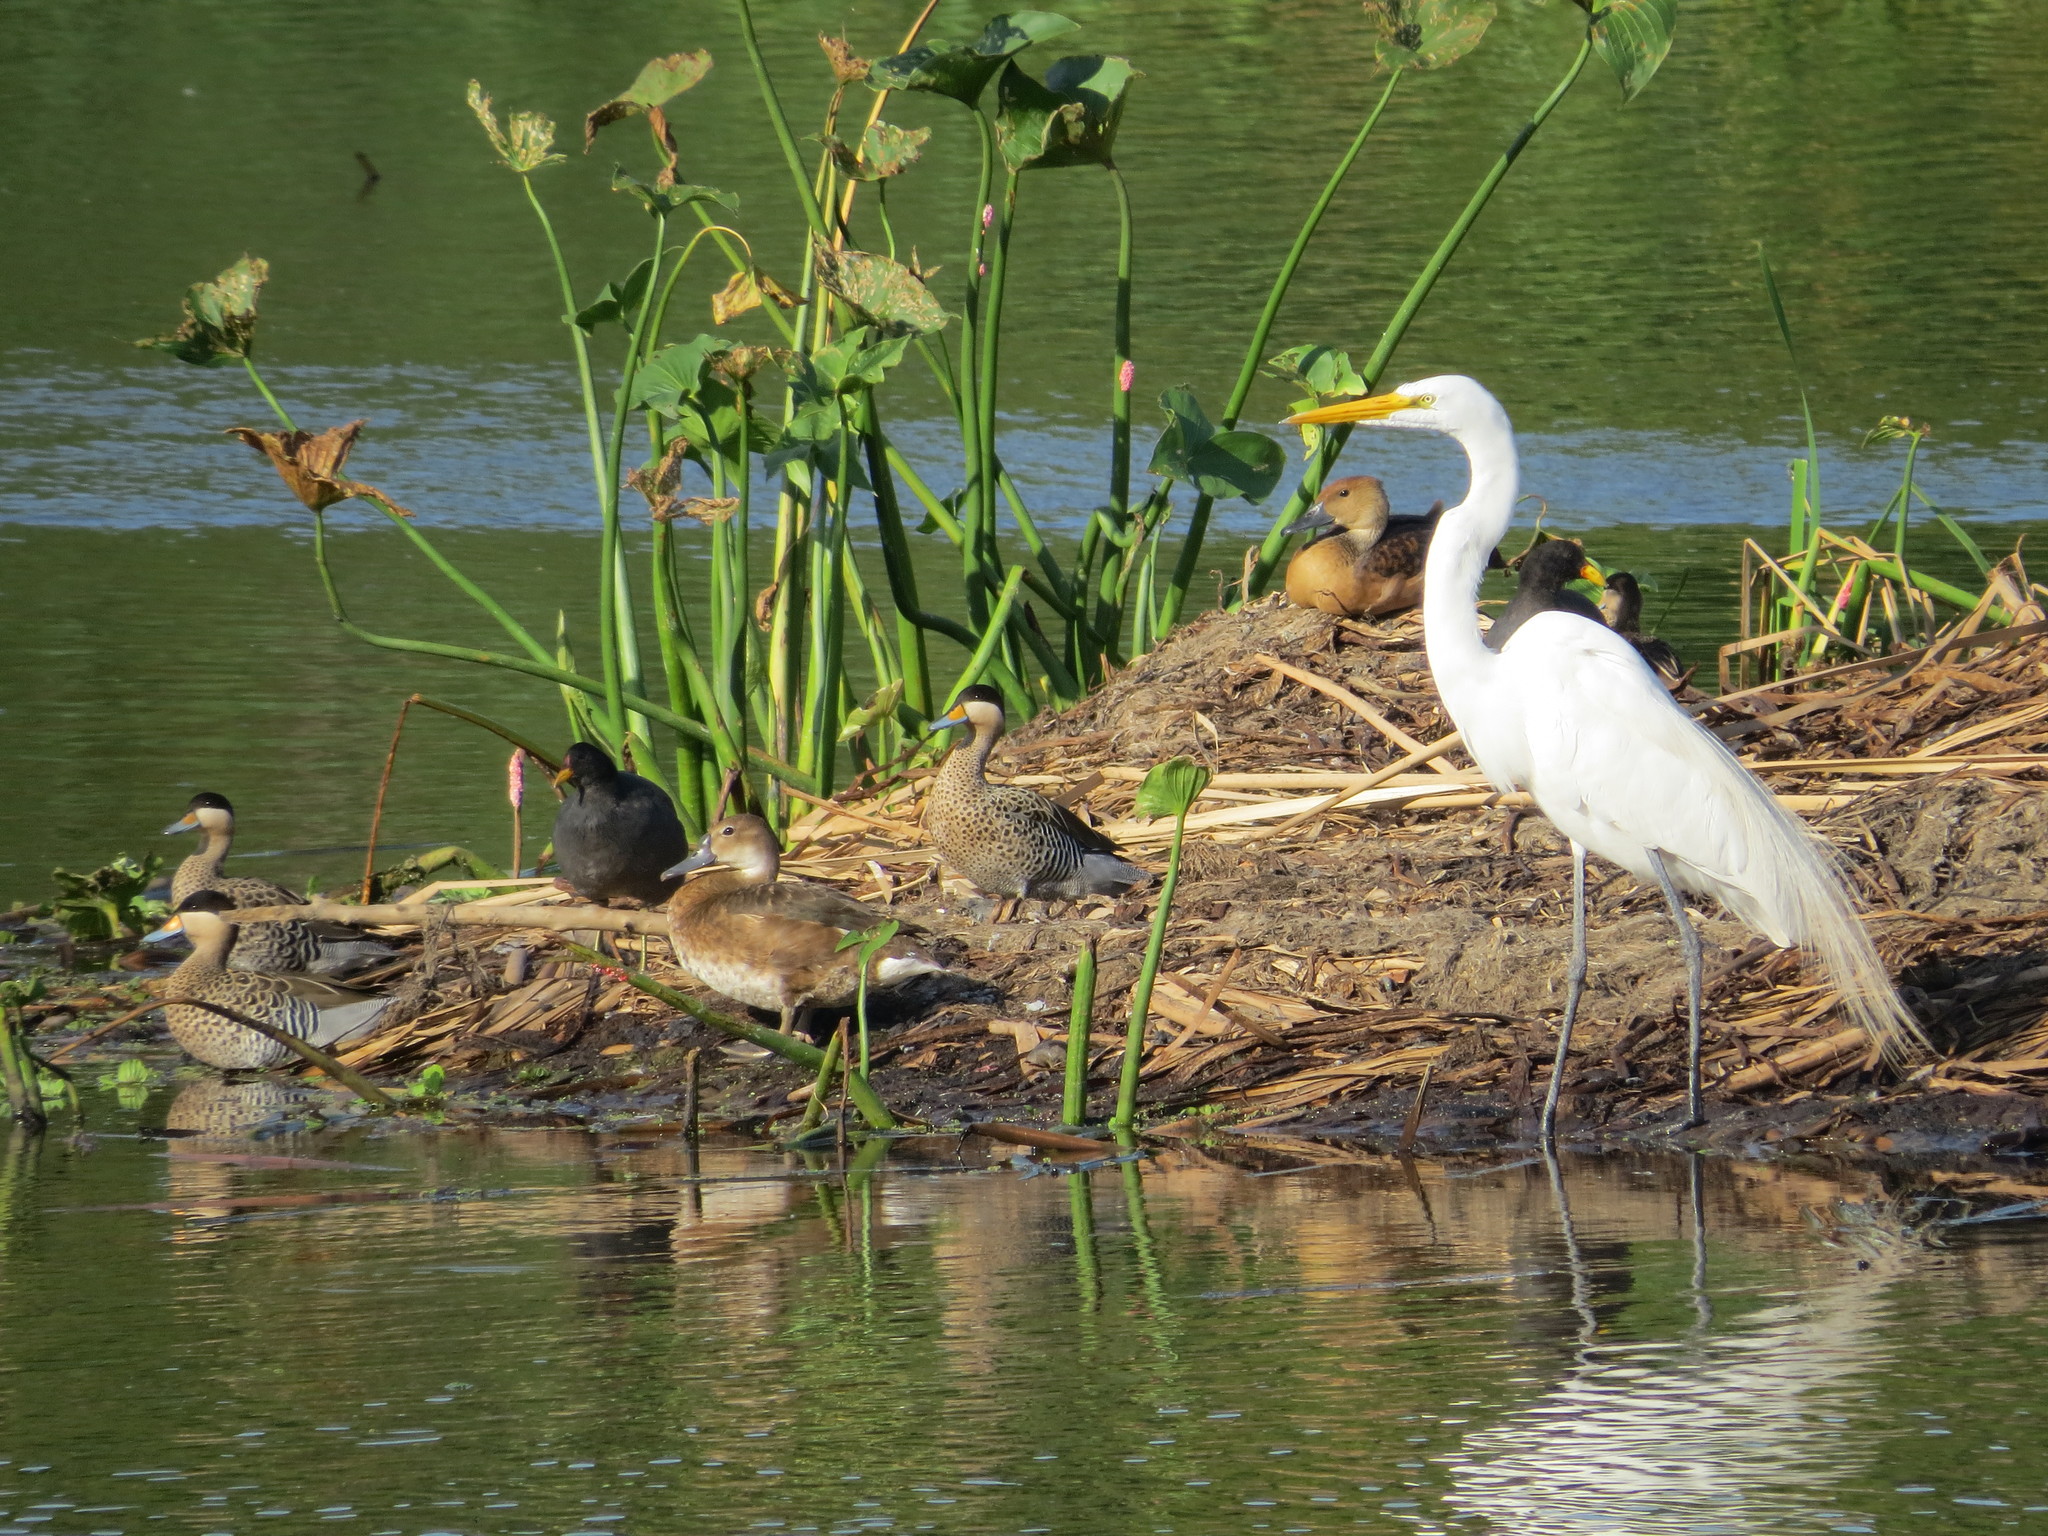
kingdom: Animalia
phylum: Chordata
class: Aves
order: Pelecaniformes
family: Ardeidae
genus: Ardea
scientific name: Ardea alba
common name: Great egret
